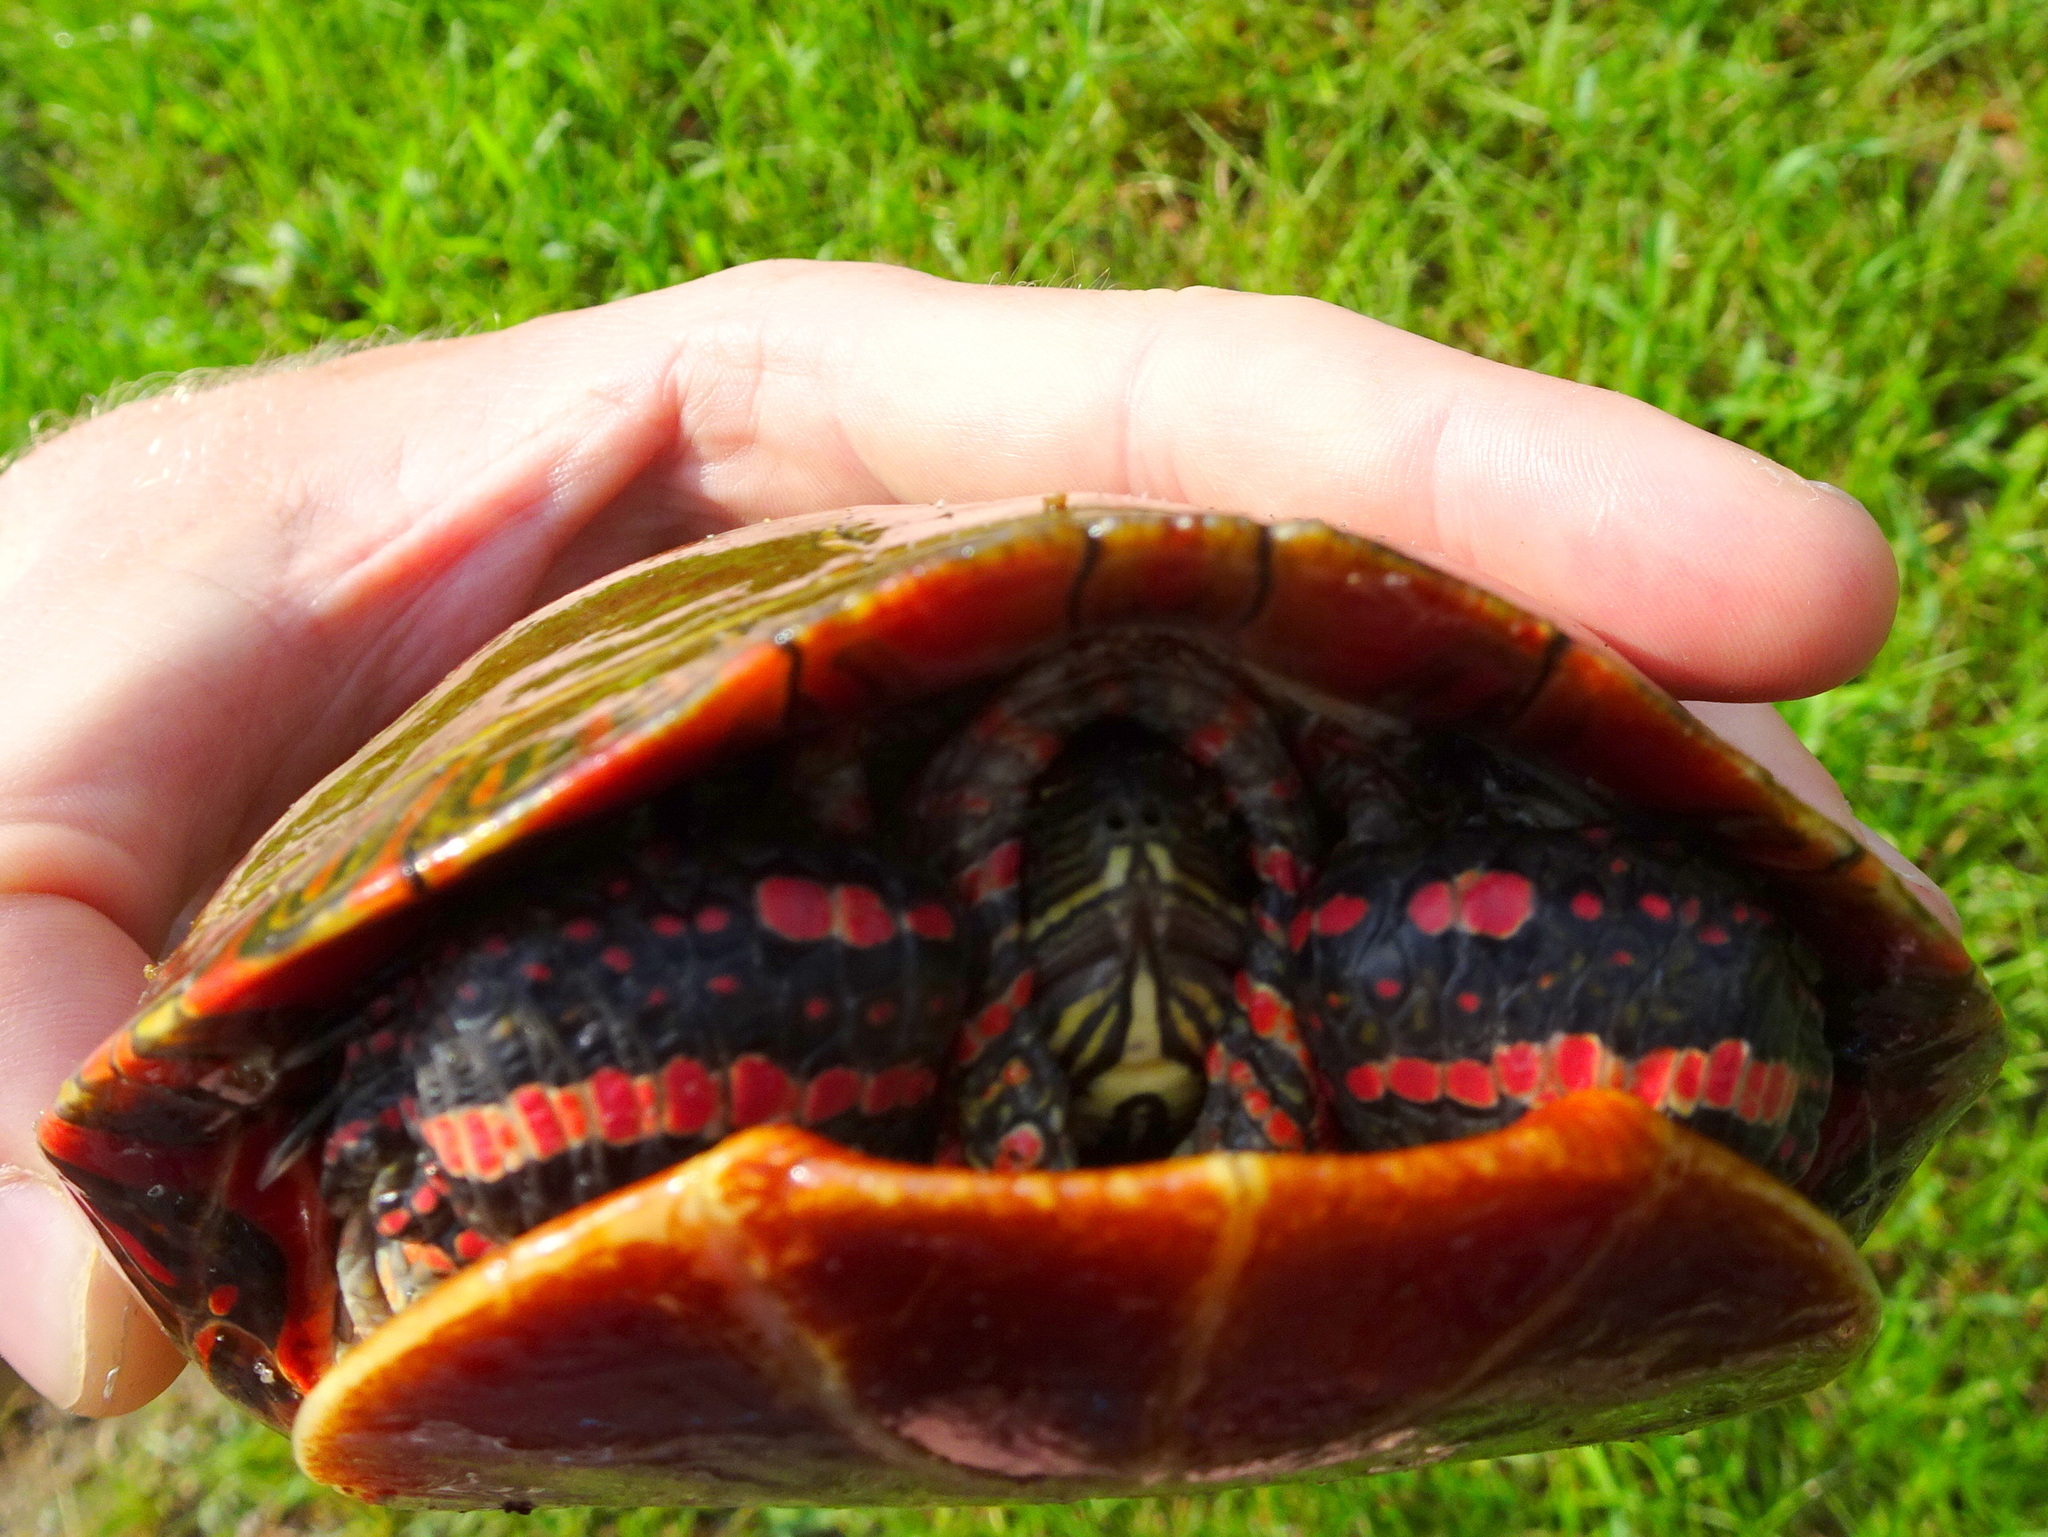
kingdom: Animalia
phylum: Chordata
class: Testudines
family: Emydidae
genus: Chrysemys
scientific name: Chrysemys picta
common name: Painted turtle
